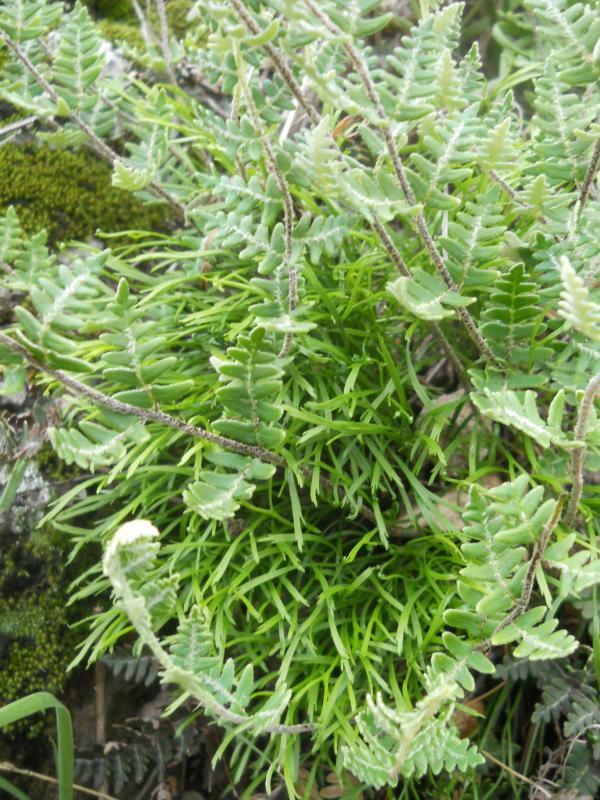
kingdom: Plantae
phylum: Tracheophyta
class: Polypodiopsida
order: Polypodiales
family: Pteridaceae
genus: Paragymnopteris
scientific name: Paragymnopteris marantae
